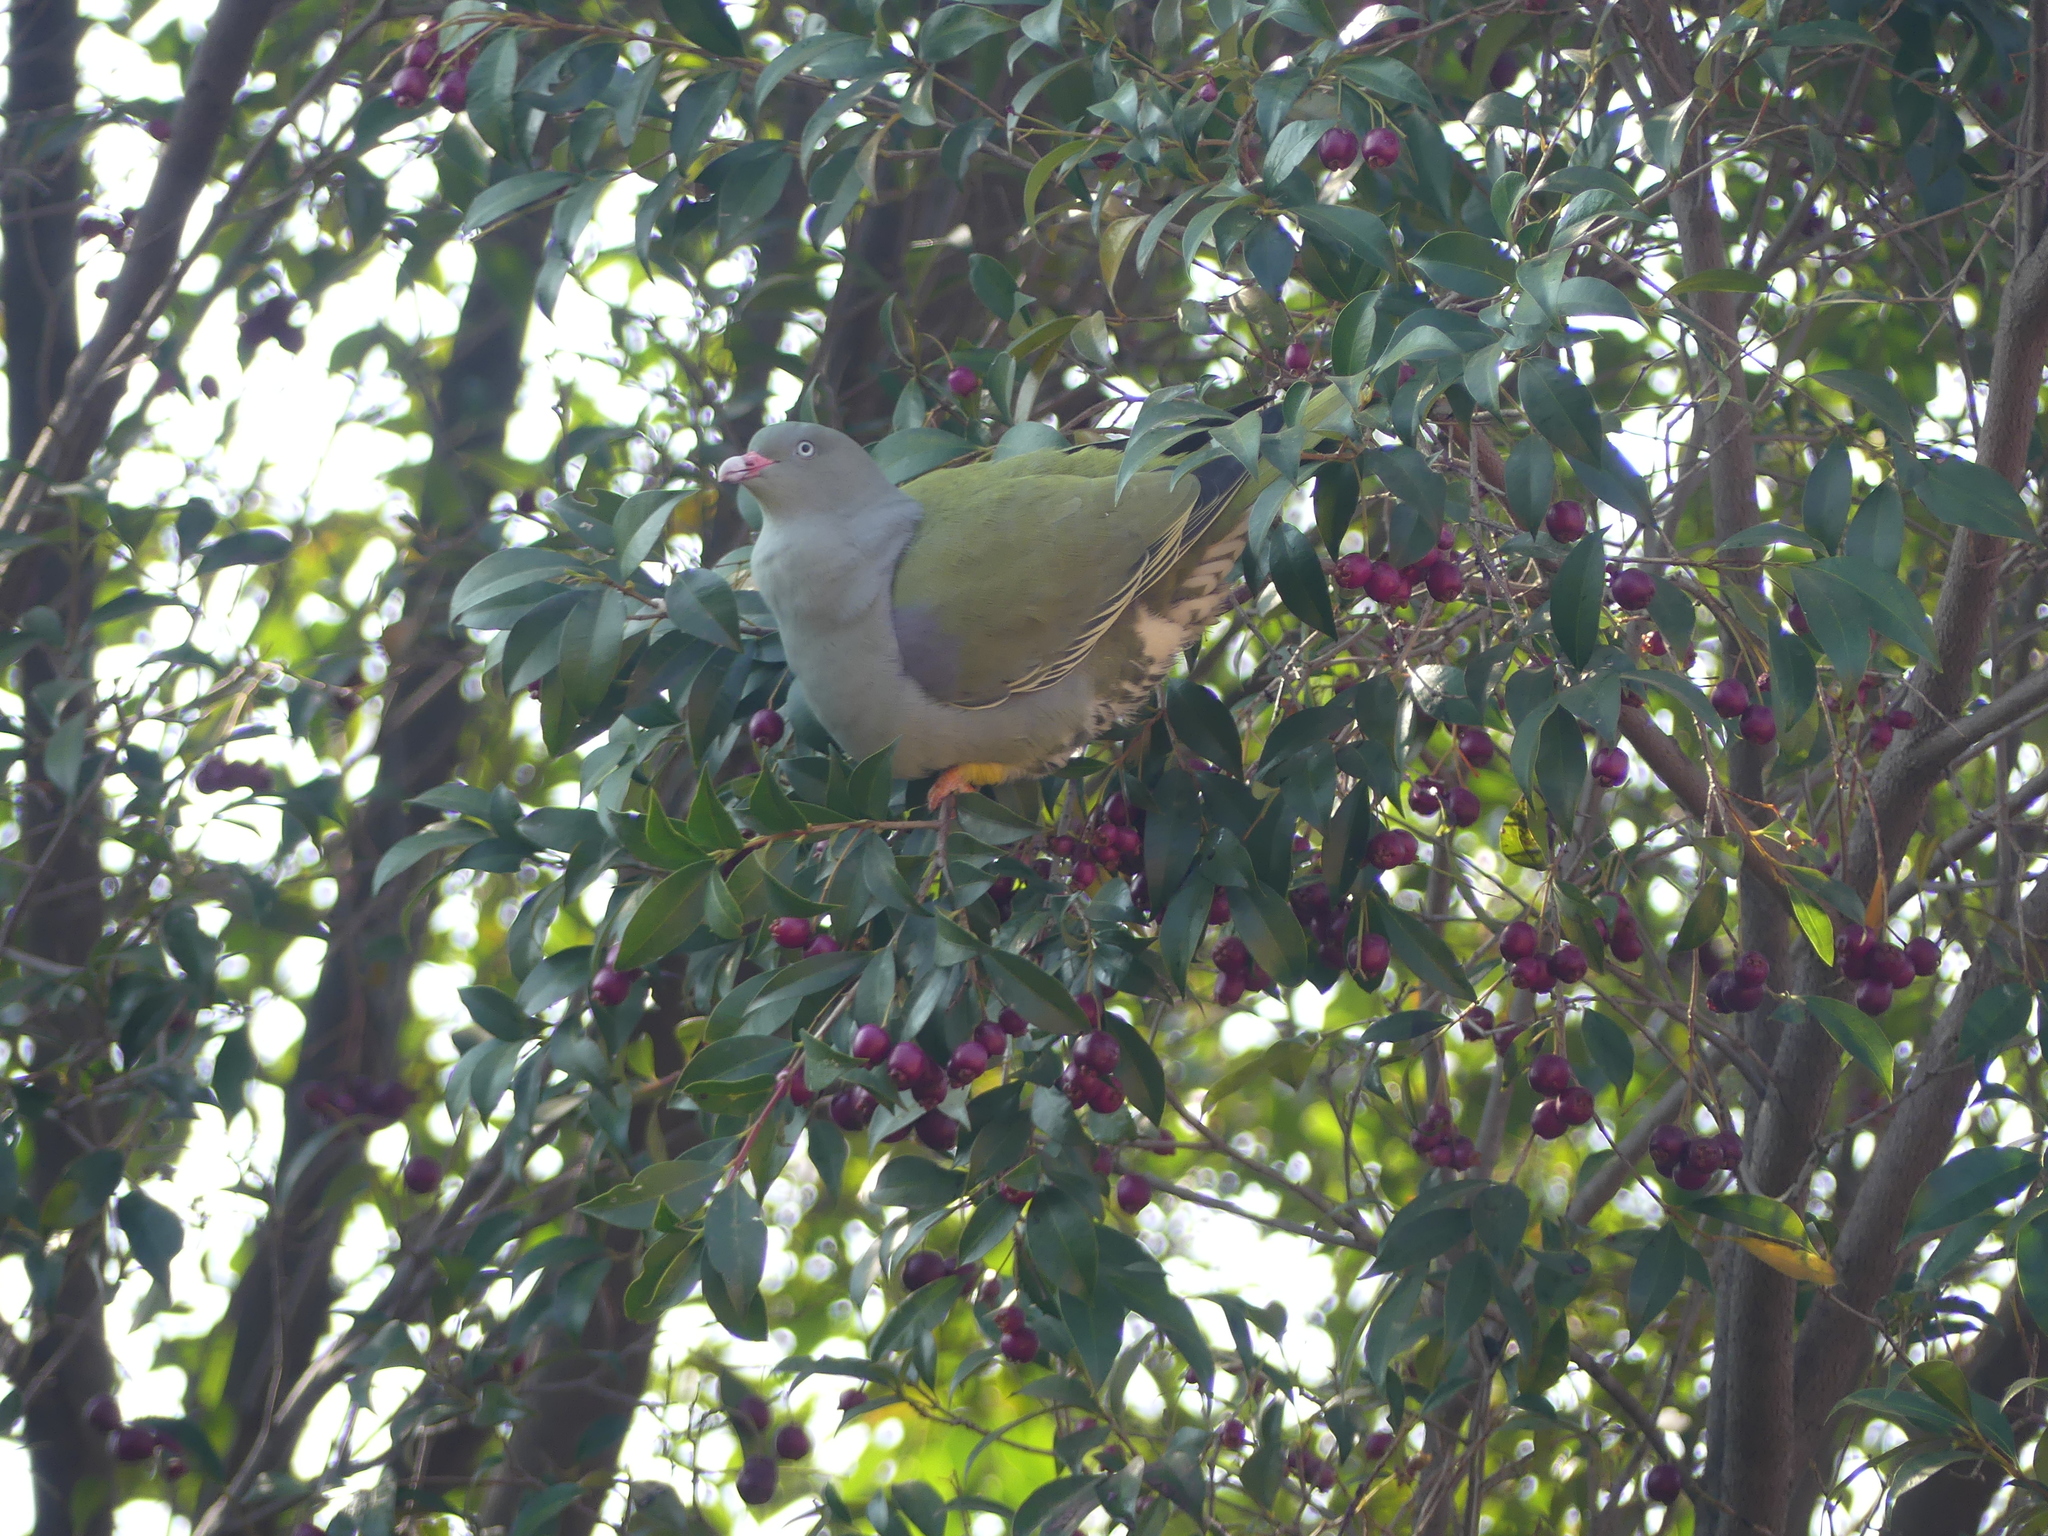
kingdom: Animalia
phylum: Chordata
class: Aves
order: Columbiformes
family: Columbidae
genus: Treron
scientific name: Treron calvus
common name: African green pigeon
